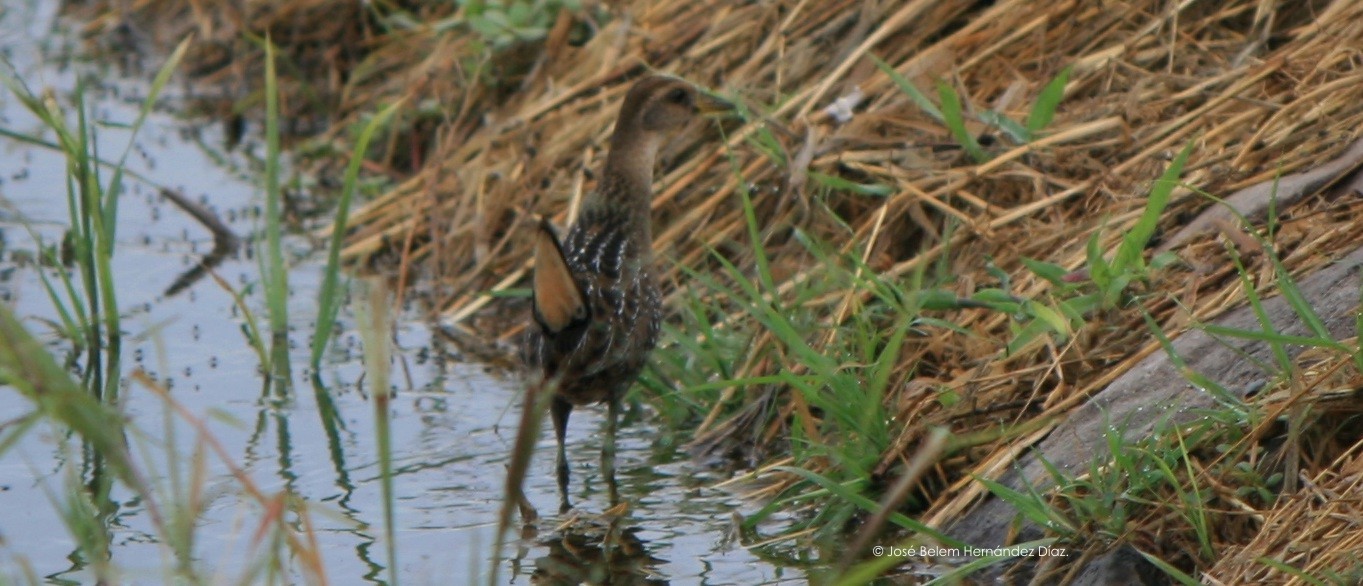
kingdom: Animalia
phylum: Chordata
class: Aves
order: Gruiformes
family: Rallidae
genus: Porzana
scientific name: Porzana carolina
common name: Sora
